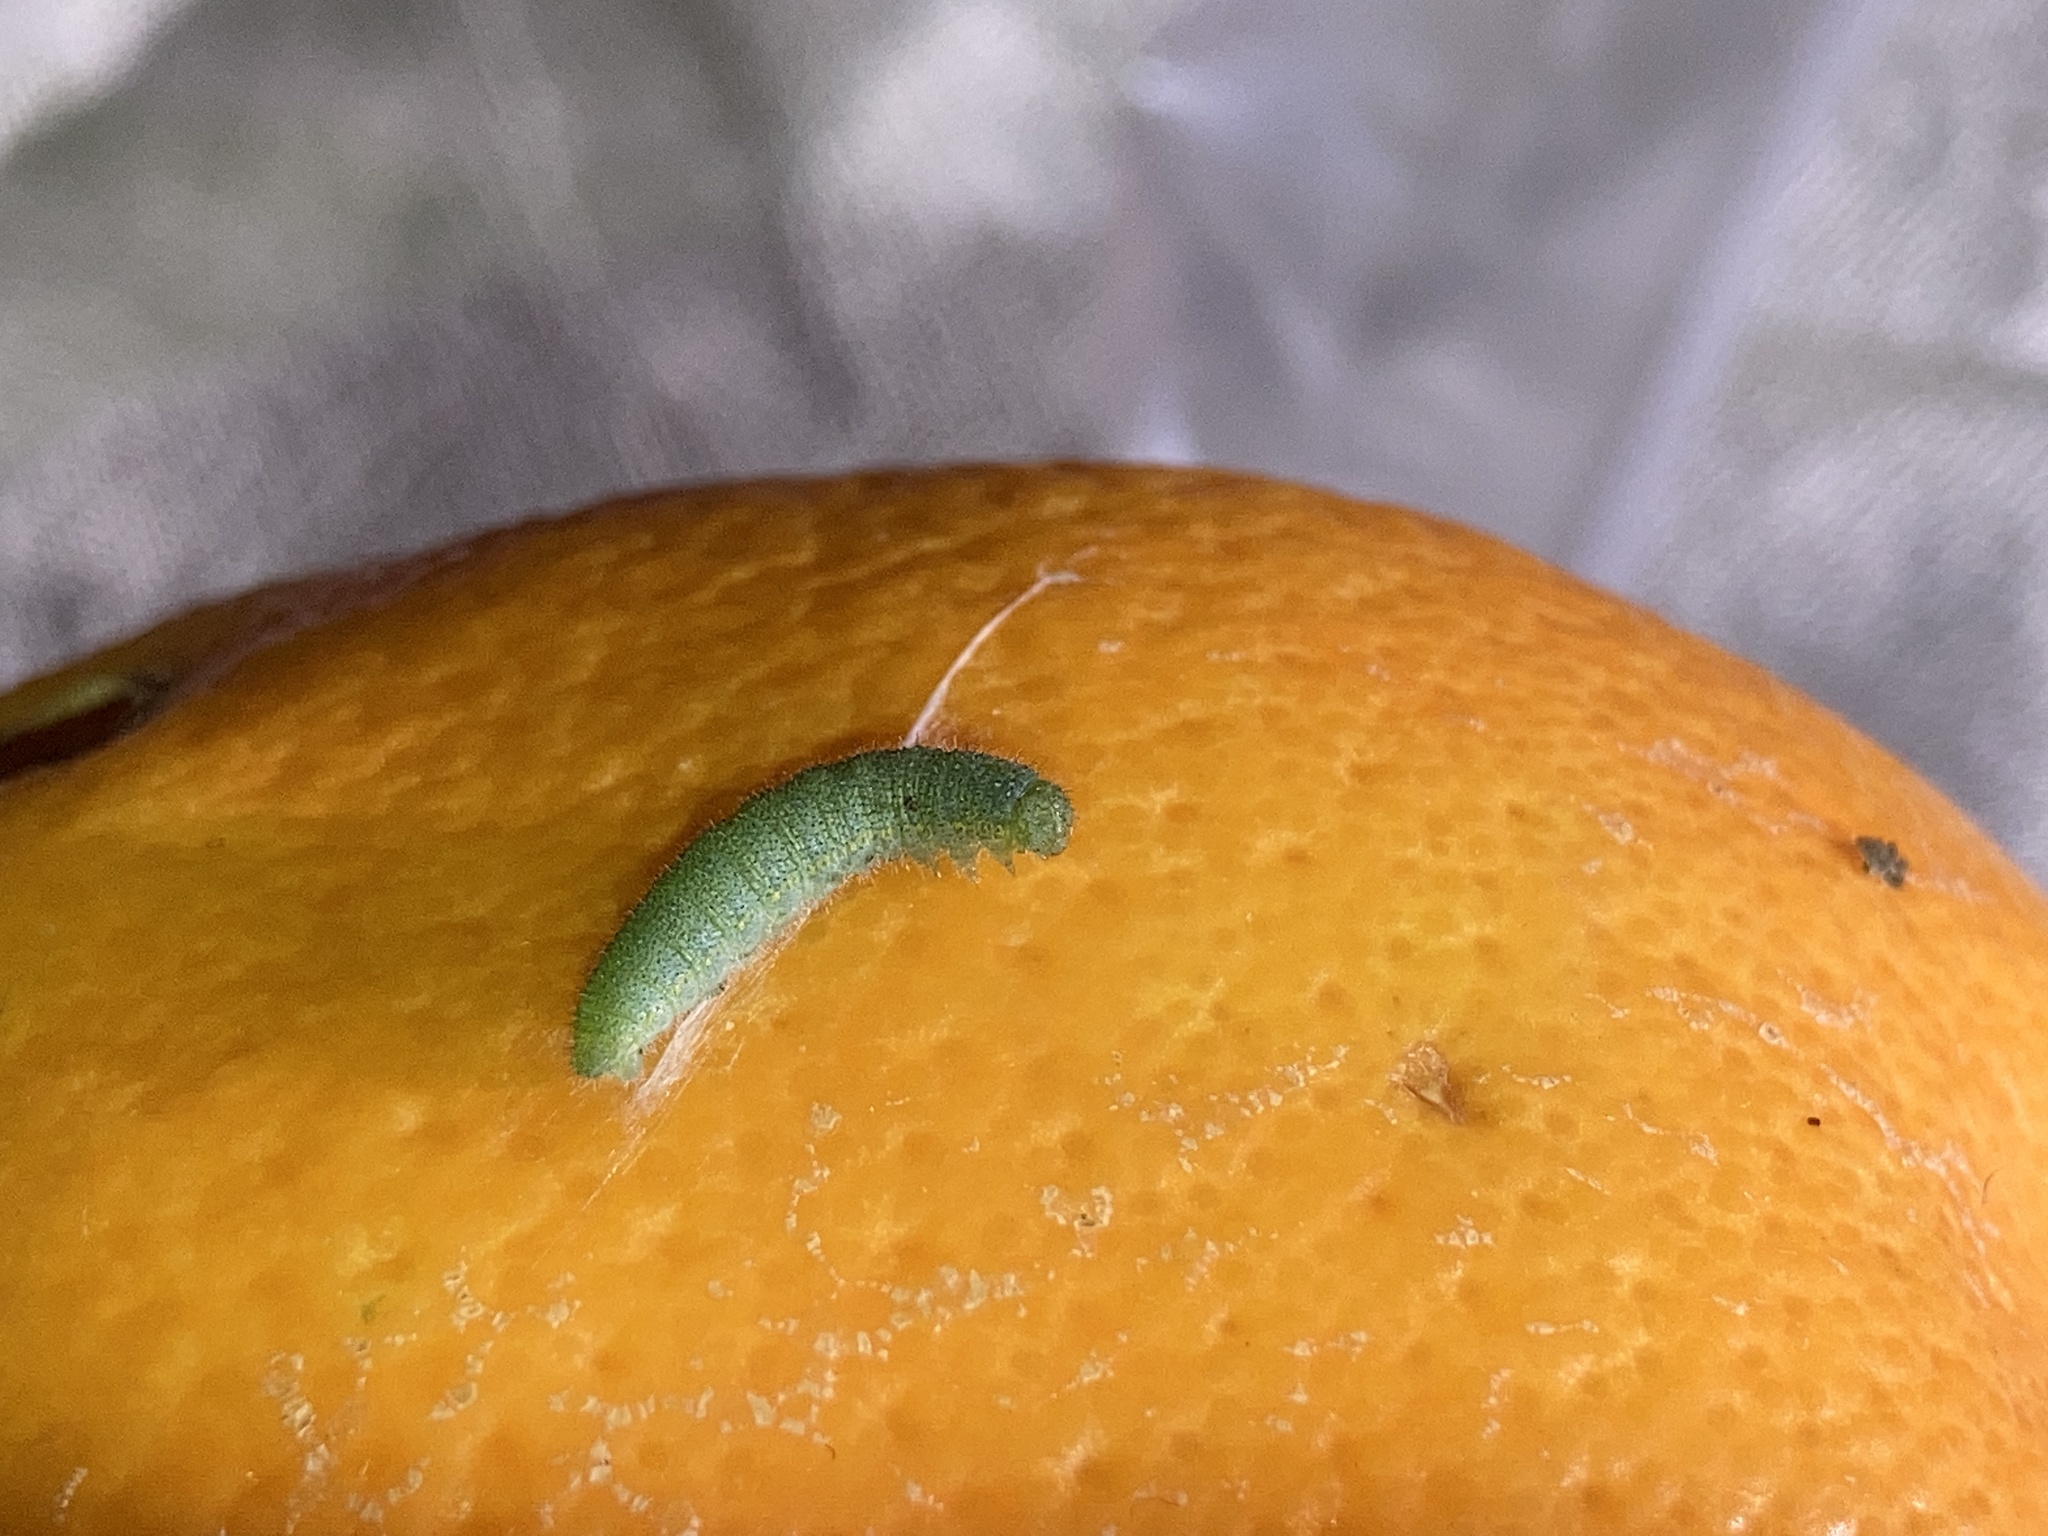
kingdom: Animalia
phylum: Arthropoda
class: Insecta
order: Lepidoptera
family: Pieridae
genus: Pieris
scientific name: Pieris rapae
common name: Small white
